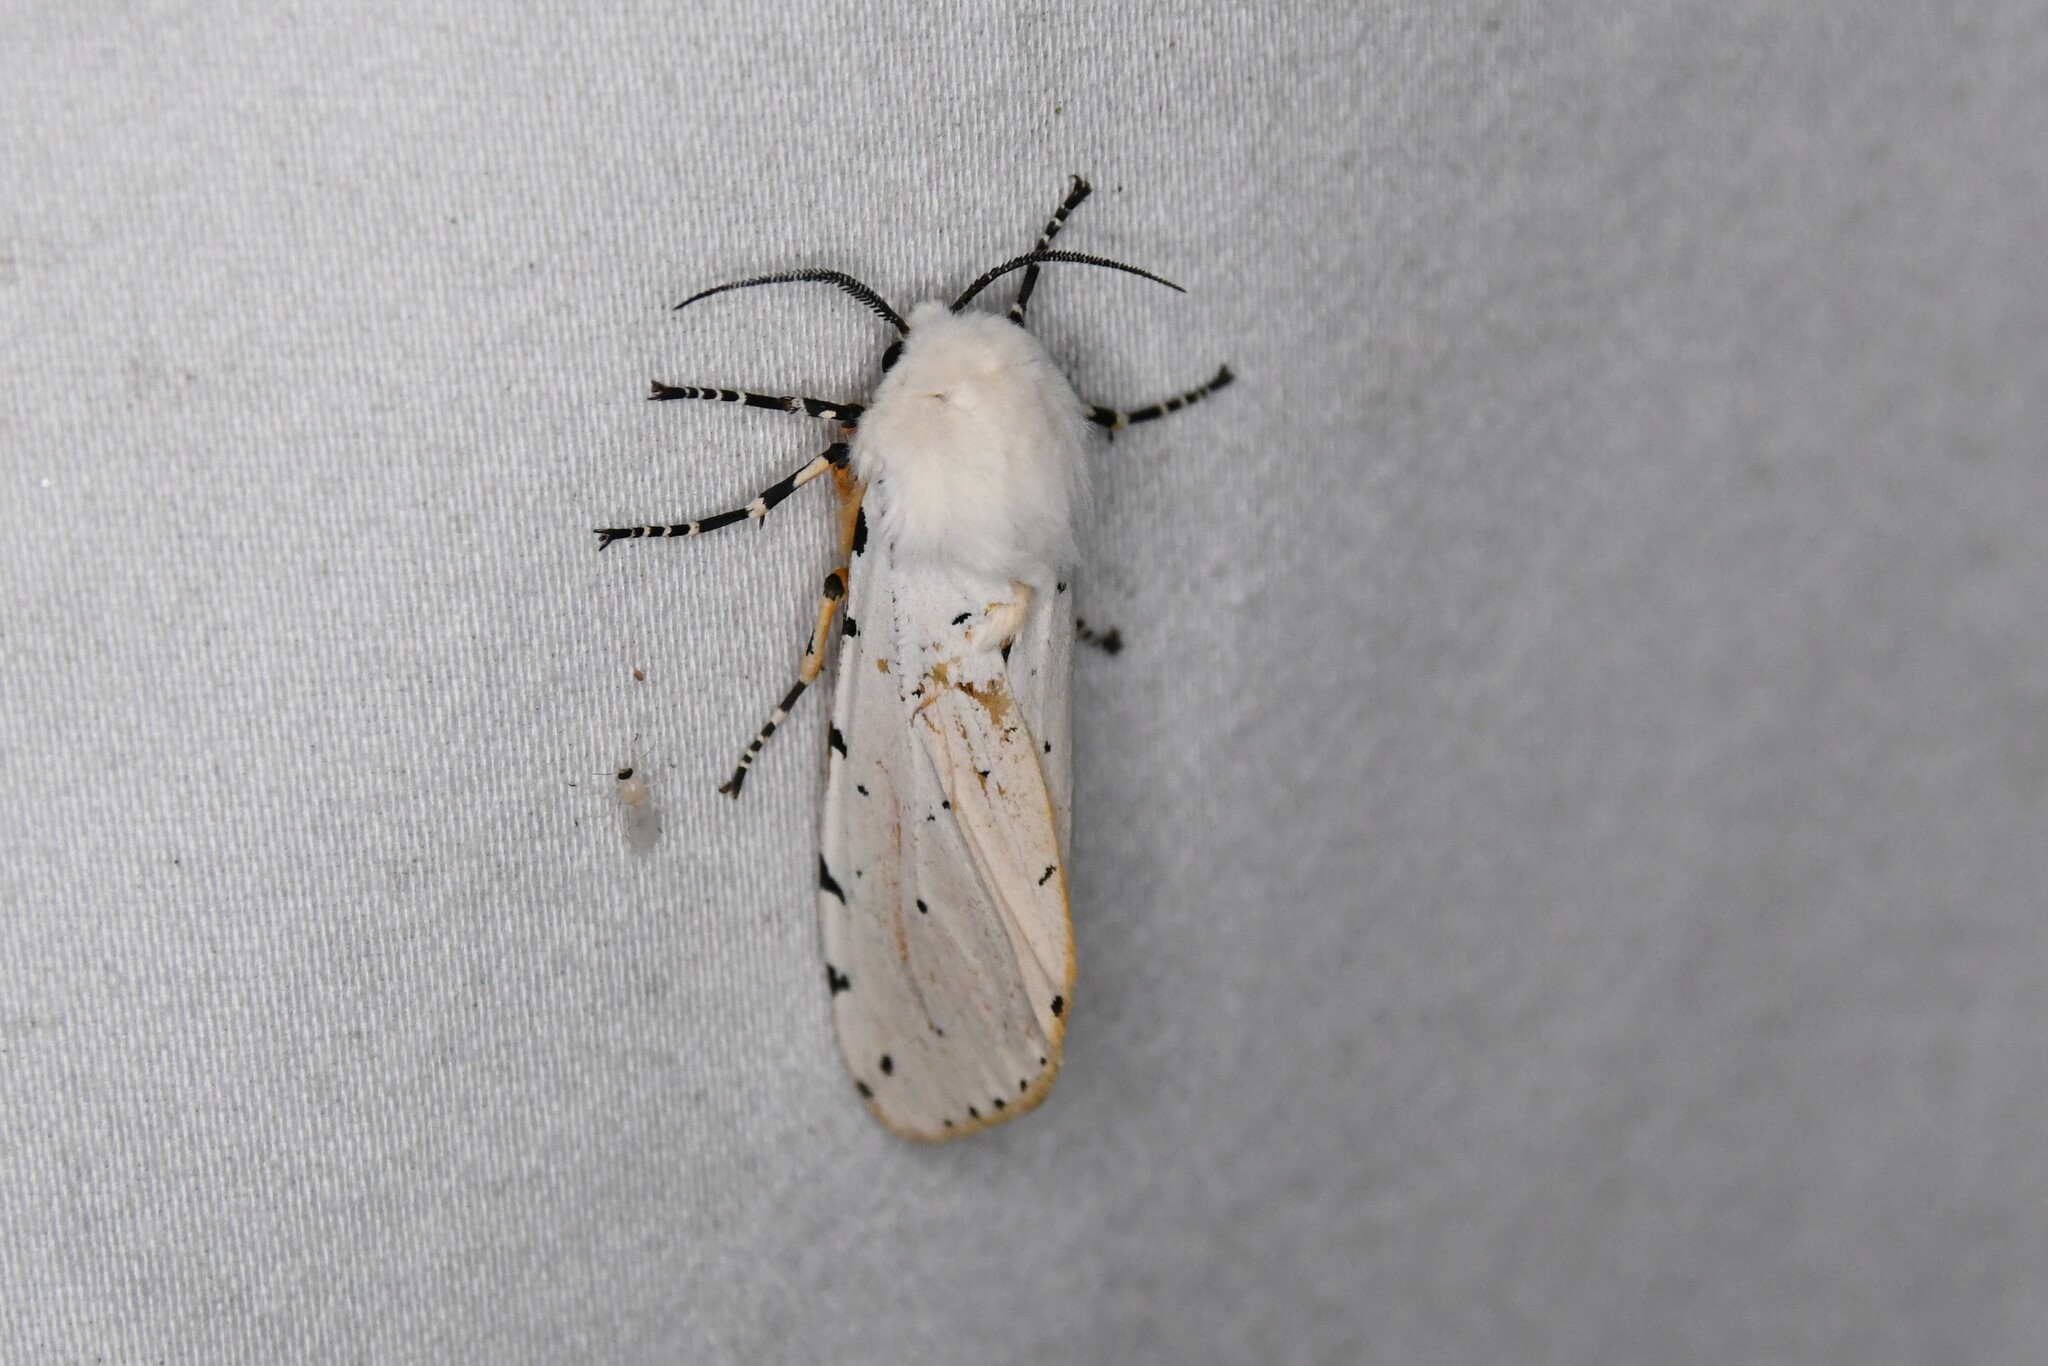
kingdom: Animalia
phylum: Arthropoda
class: Insecta
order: Lepidoptera
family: Erebidae
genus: Estigmene
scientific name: Estigmene acrea
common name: Salt marsh moth
